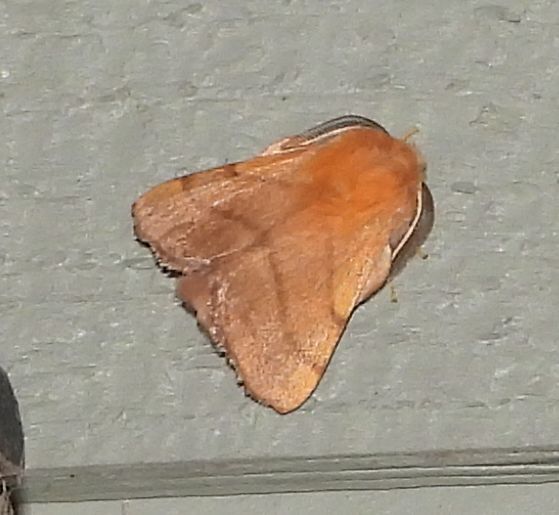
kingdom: Animalia
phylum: Arthropoda
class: Insecta
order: Lepidoptera
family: Lasiocampidae
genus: Malacosoma
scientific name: Malacosoma disstria
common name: Forest tent caterpillar
